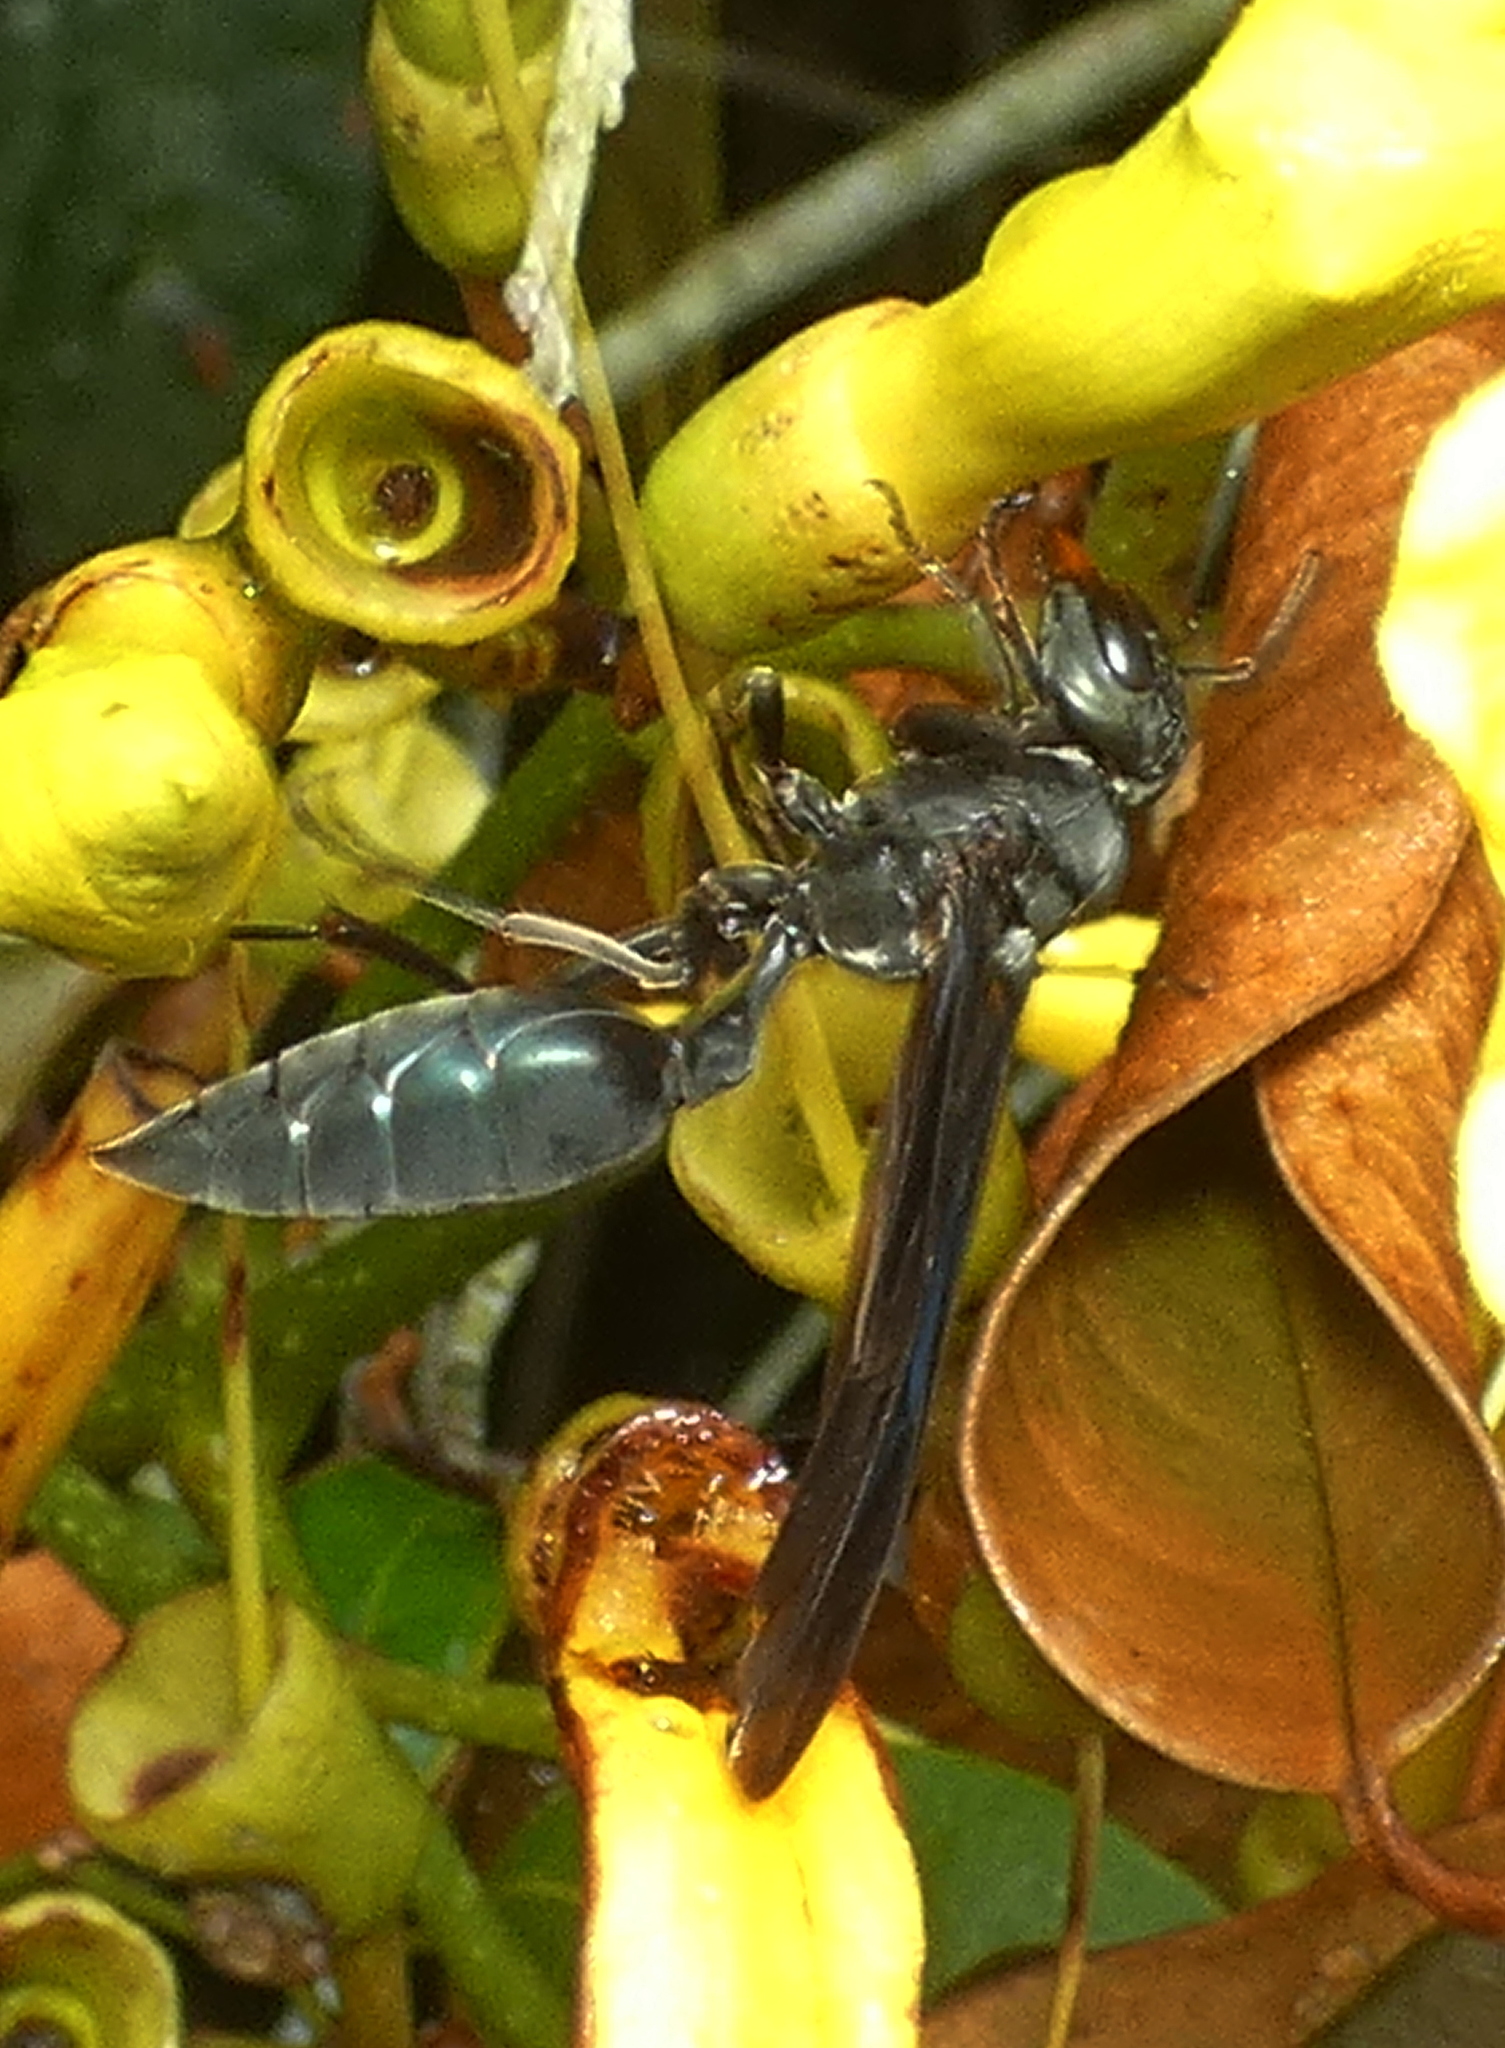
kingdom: Animalia
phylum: Arthropoda
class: Insecta
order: Hymenoptera
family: Vespidae
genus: Synoeca
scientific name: Synoeca ilheensis
